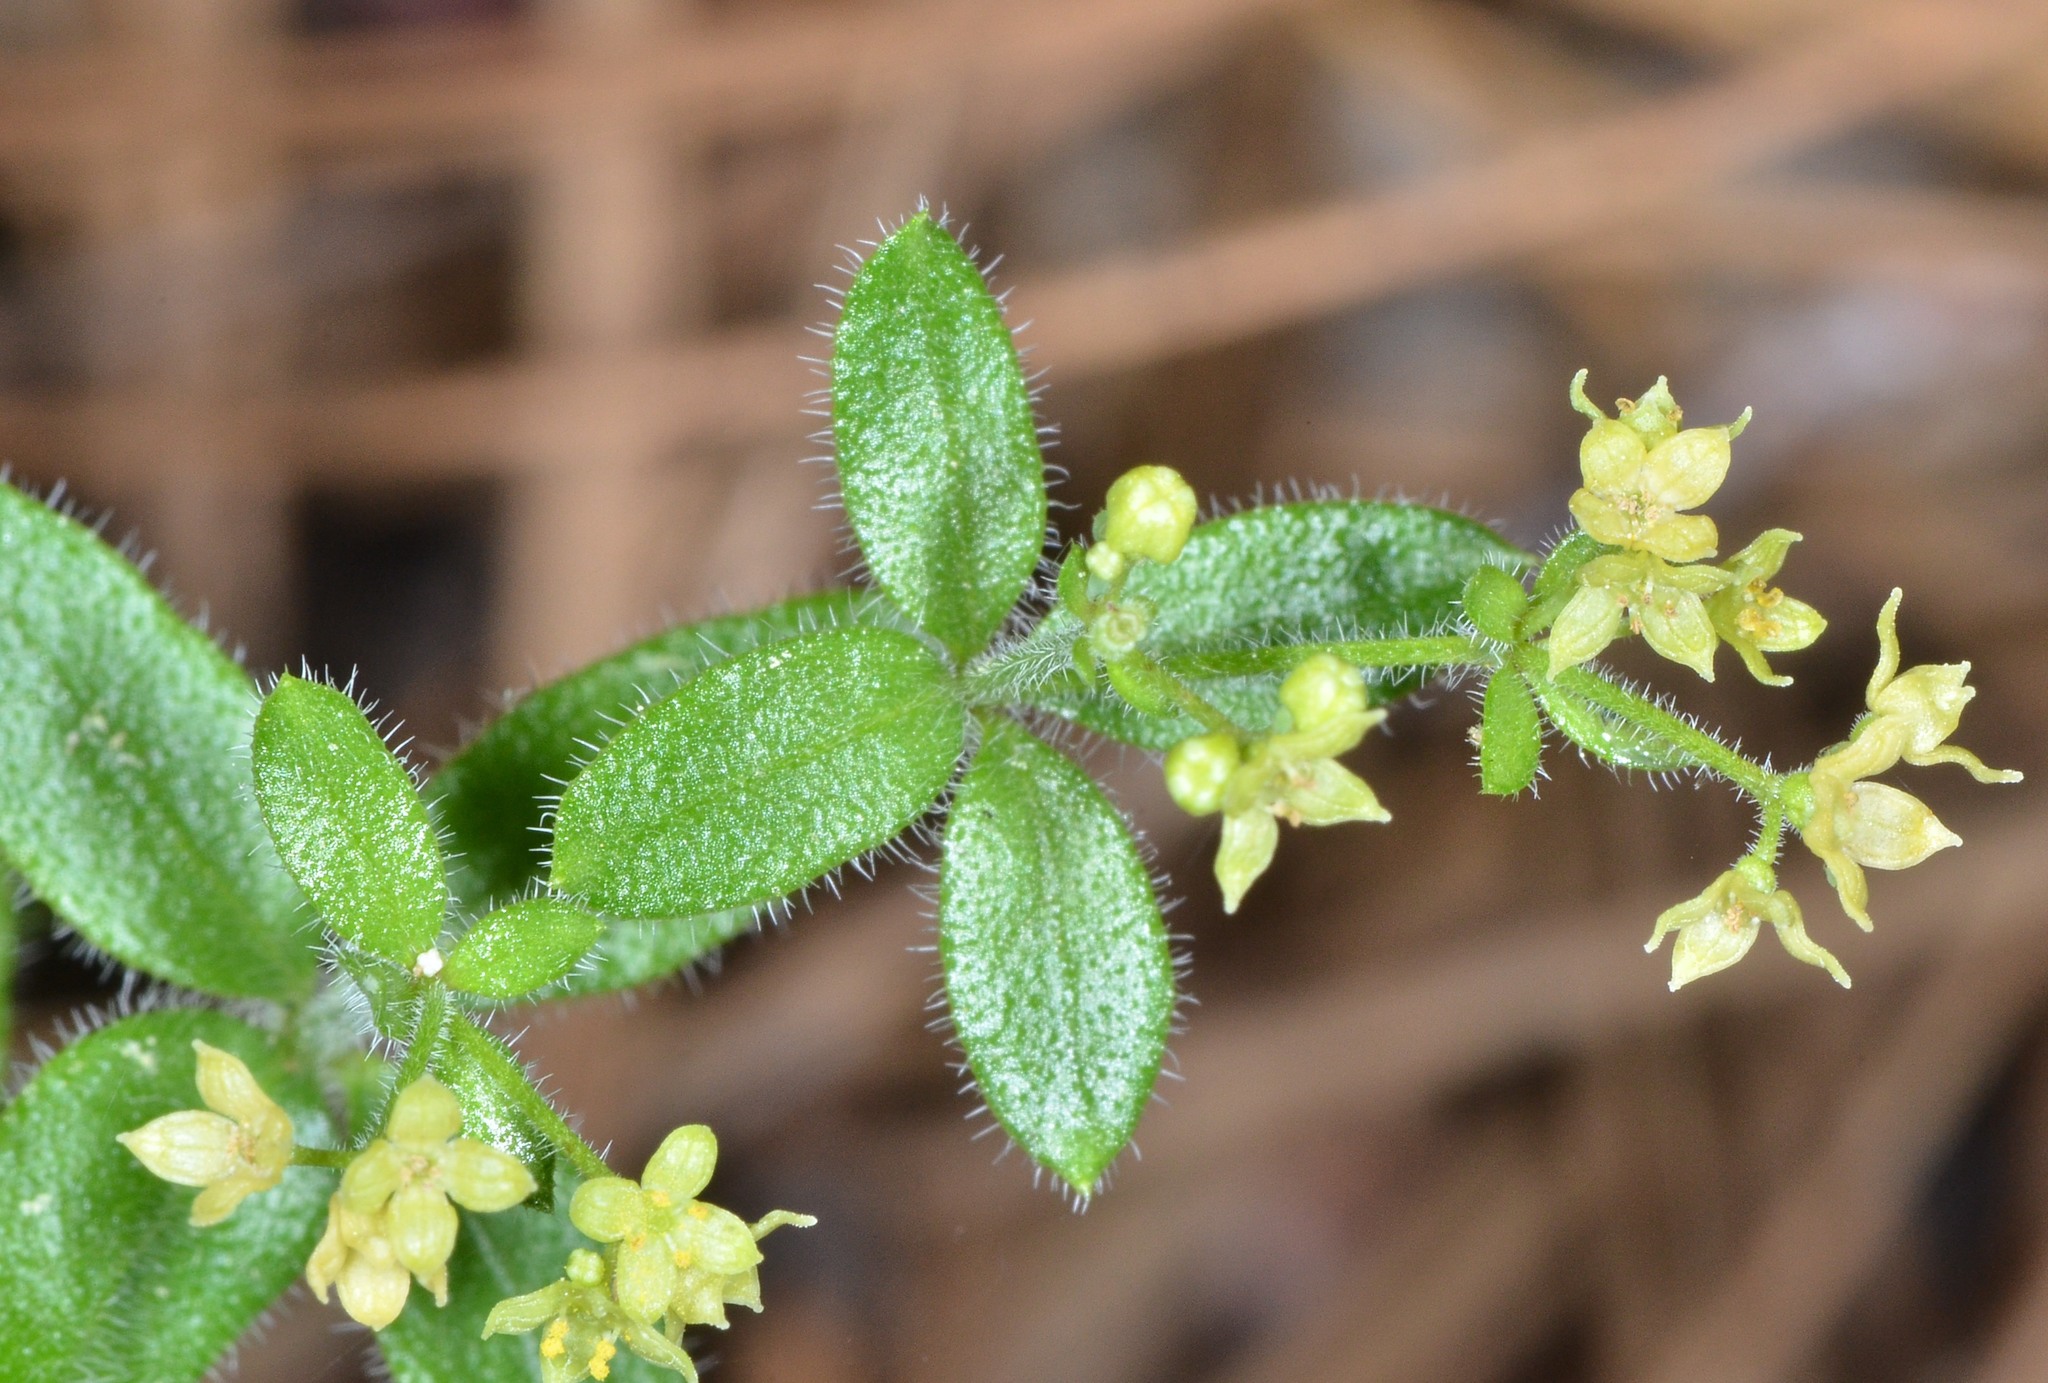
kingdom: Plantae
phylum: Tracheophyta
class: Magnoliopsida
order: Gentianales
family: Rubiaceae
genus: Galium
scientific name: Galium californicum
